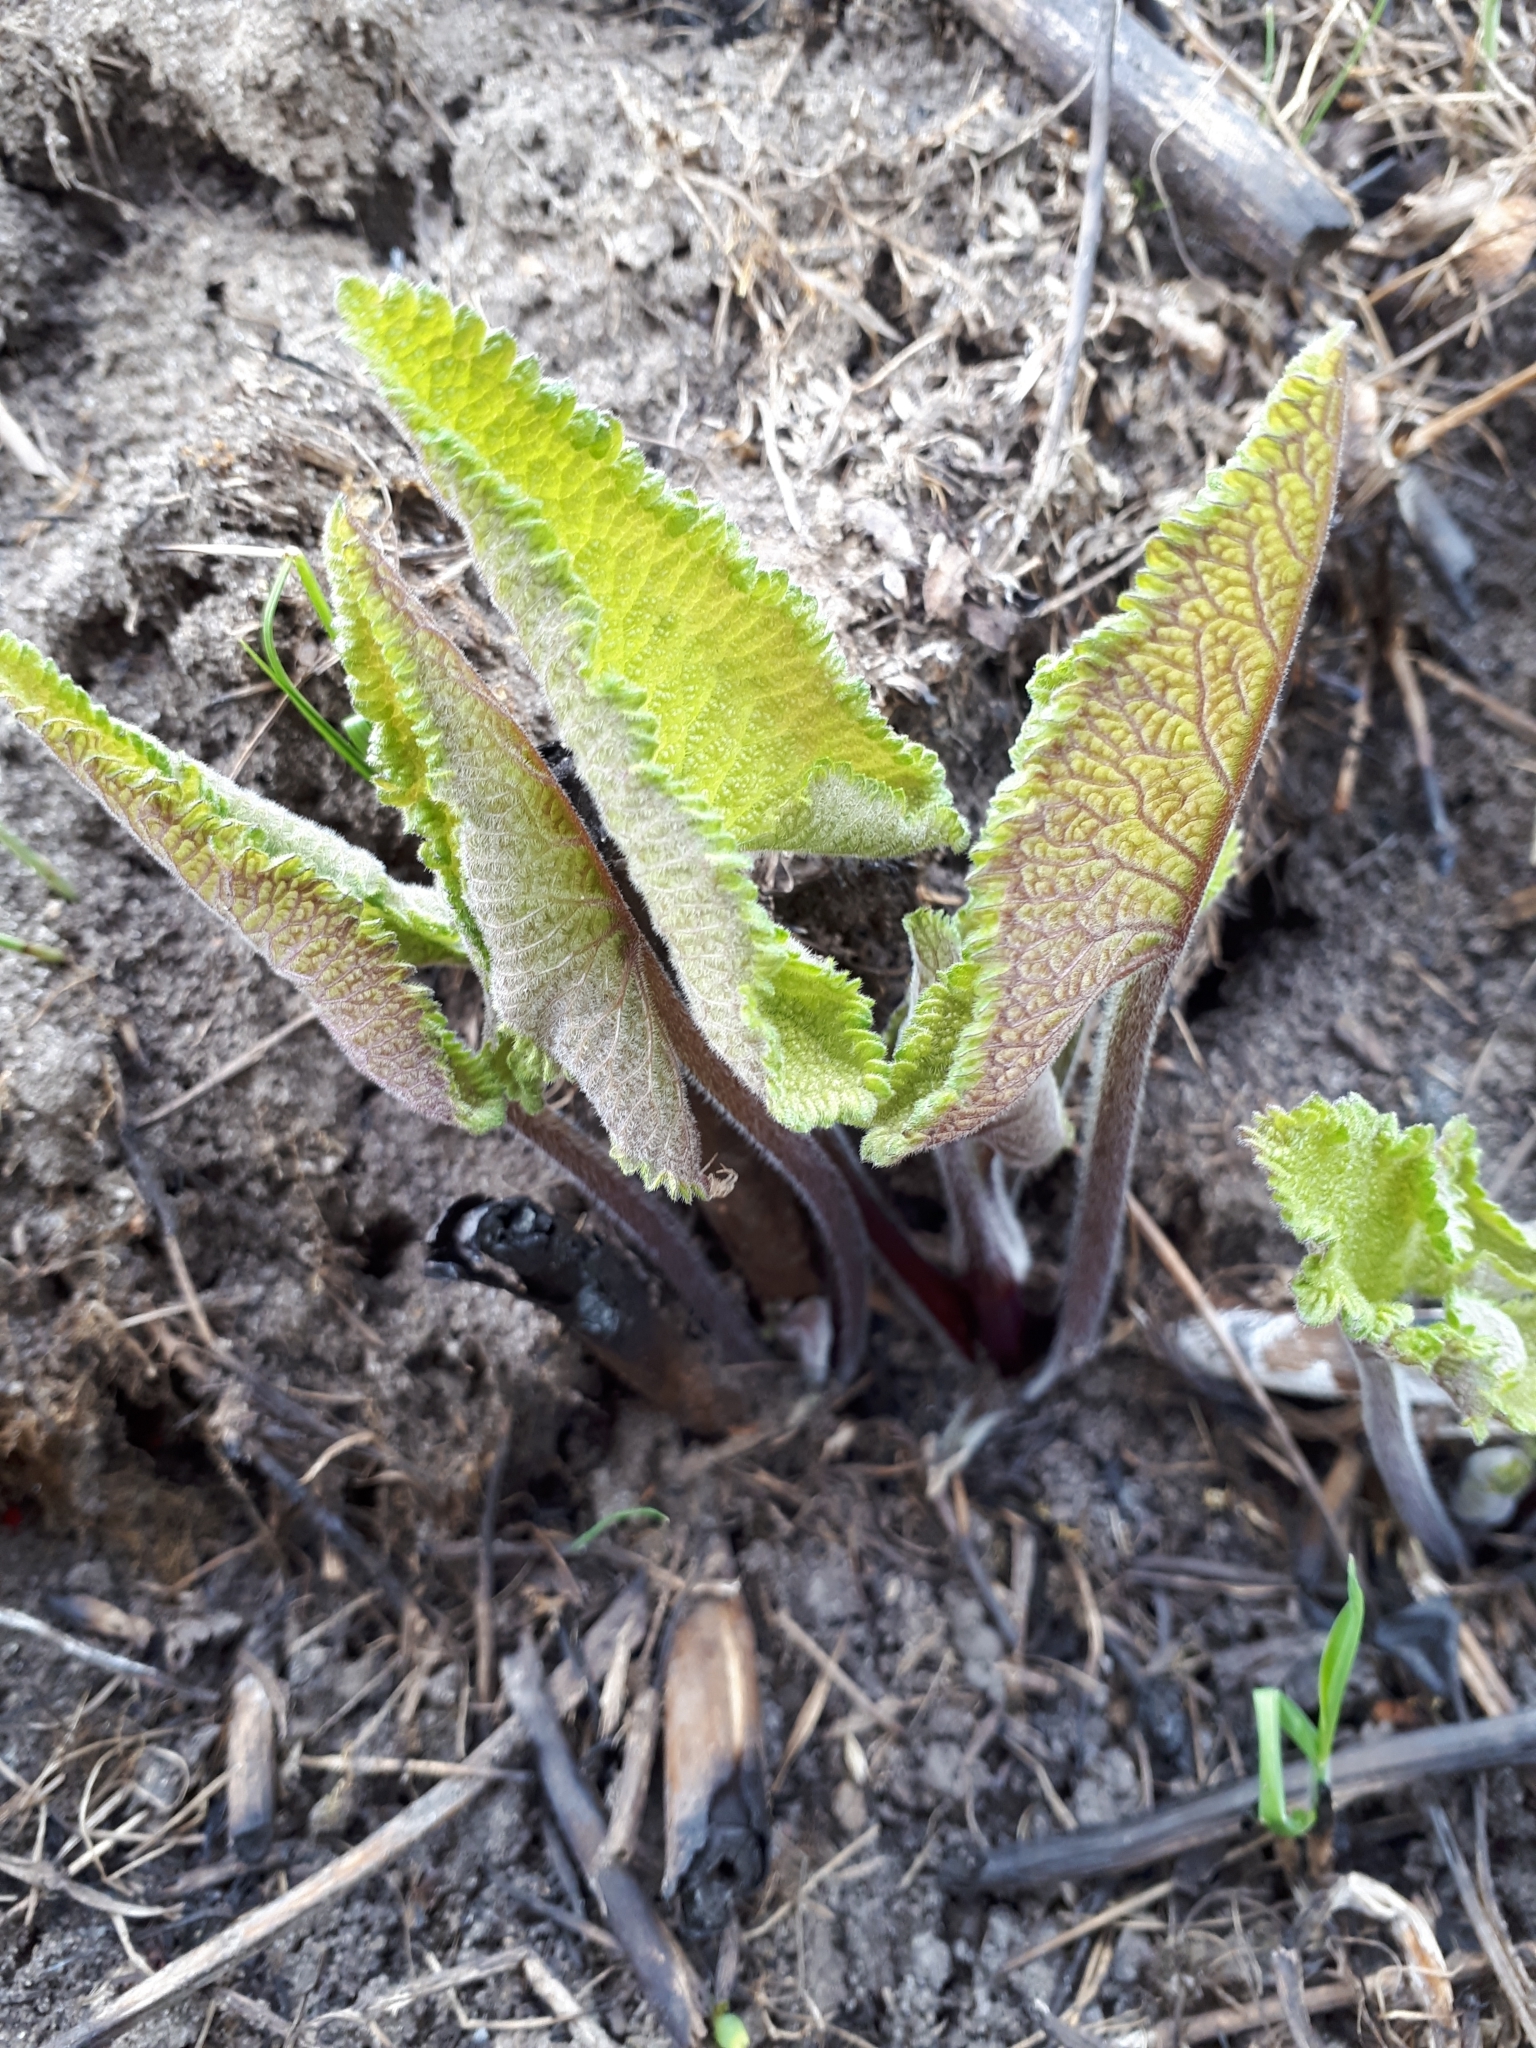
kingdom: Plantae
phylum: Tracheophyta
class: Magnoliopsida
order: Lamiales
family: Lamiaceae
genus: Phlomoides
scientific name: Phlomoides tuberosa
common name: Tuberous jerusalem sage
